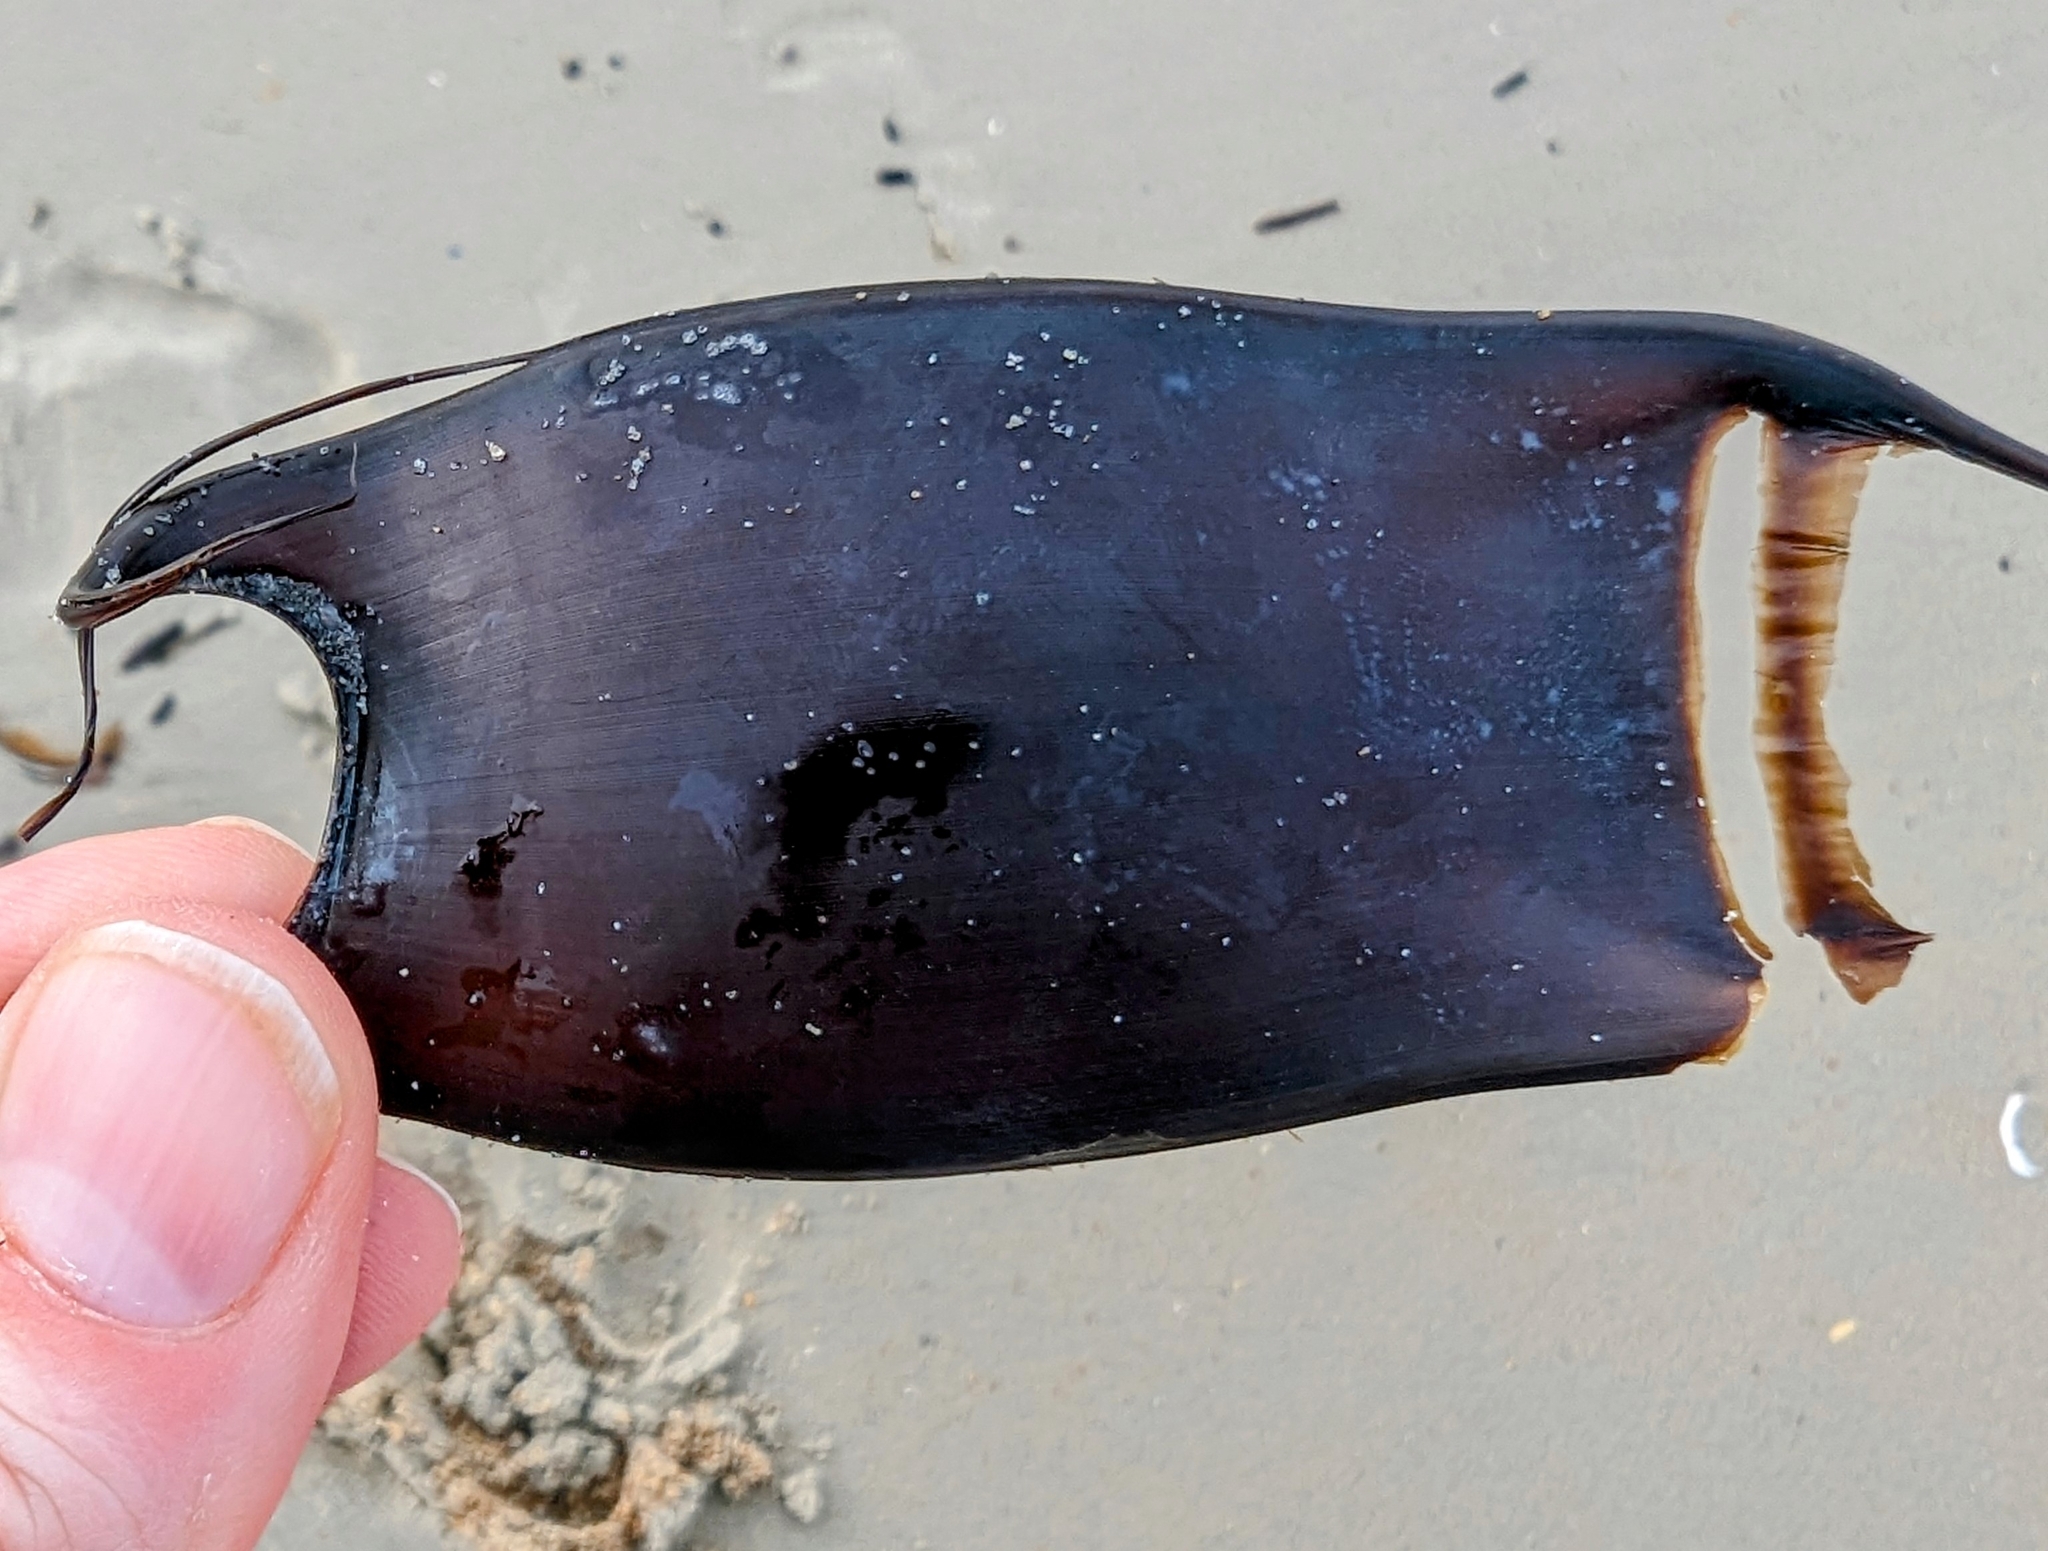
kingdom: Animalia
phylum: Chordata
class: Elasmobranchii
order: Rajiformes
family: Rajidae
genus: Raja
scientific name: Raja eglanteria
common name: Clearnose skate
